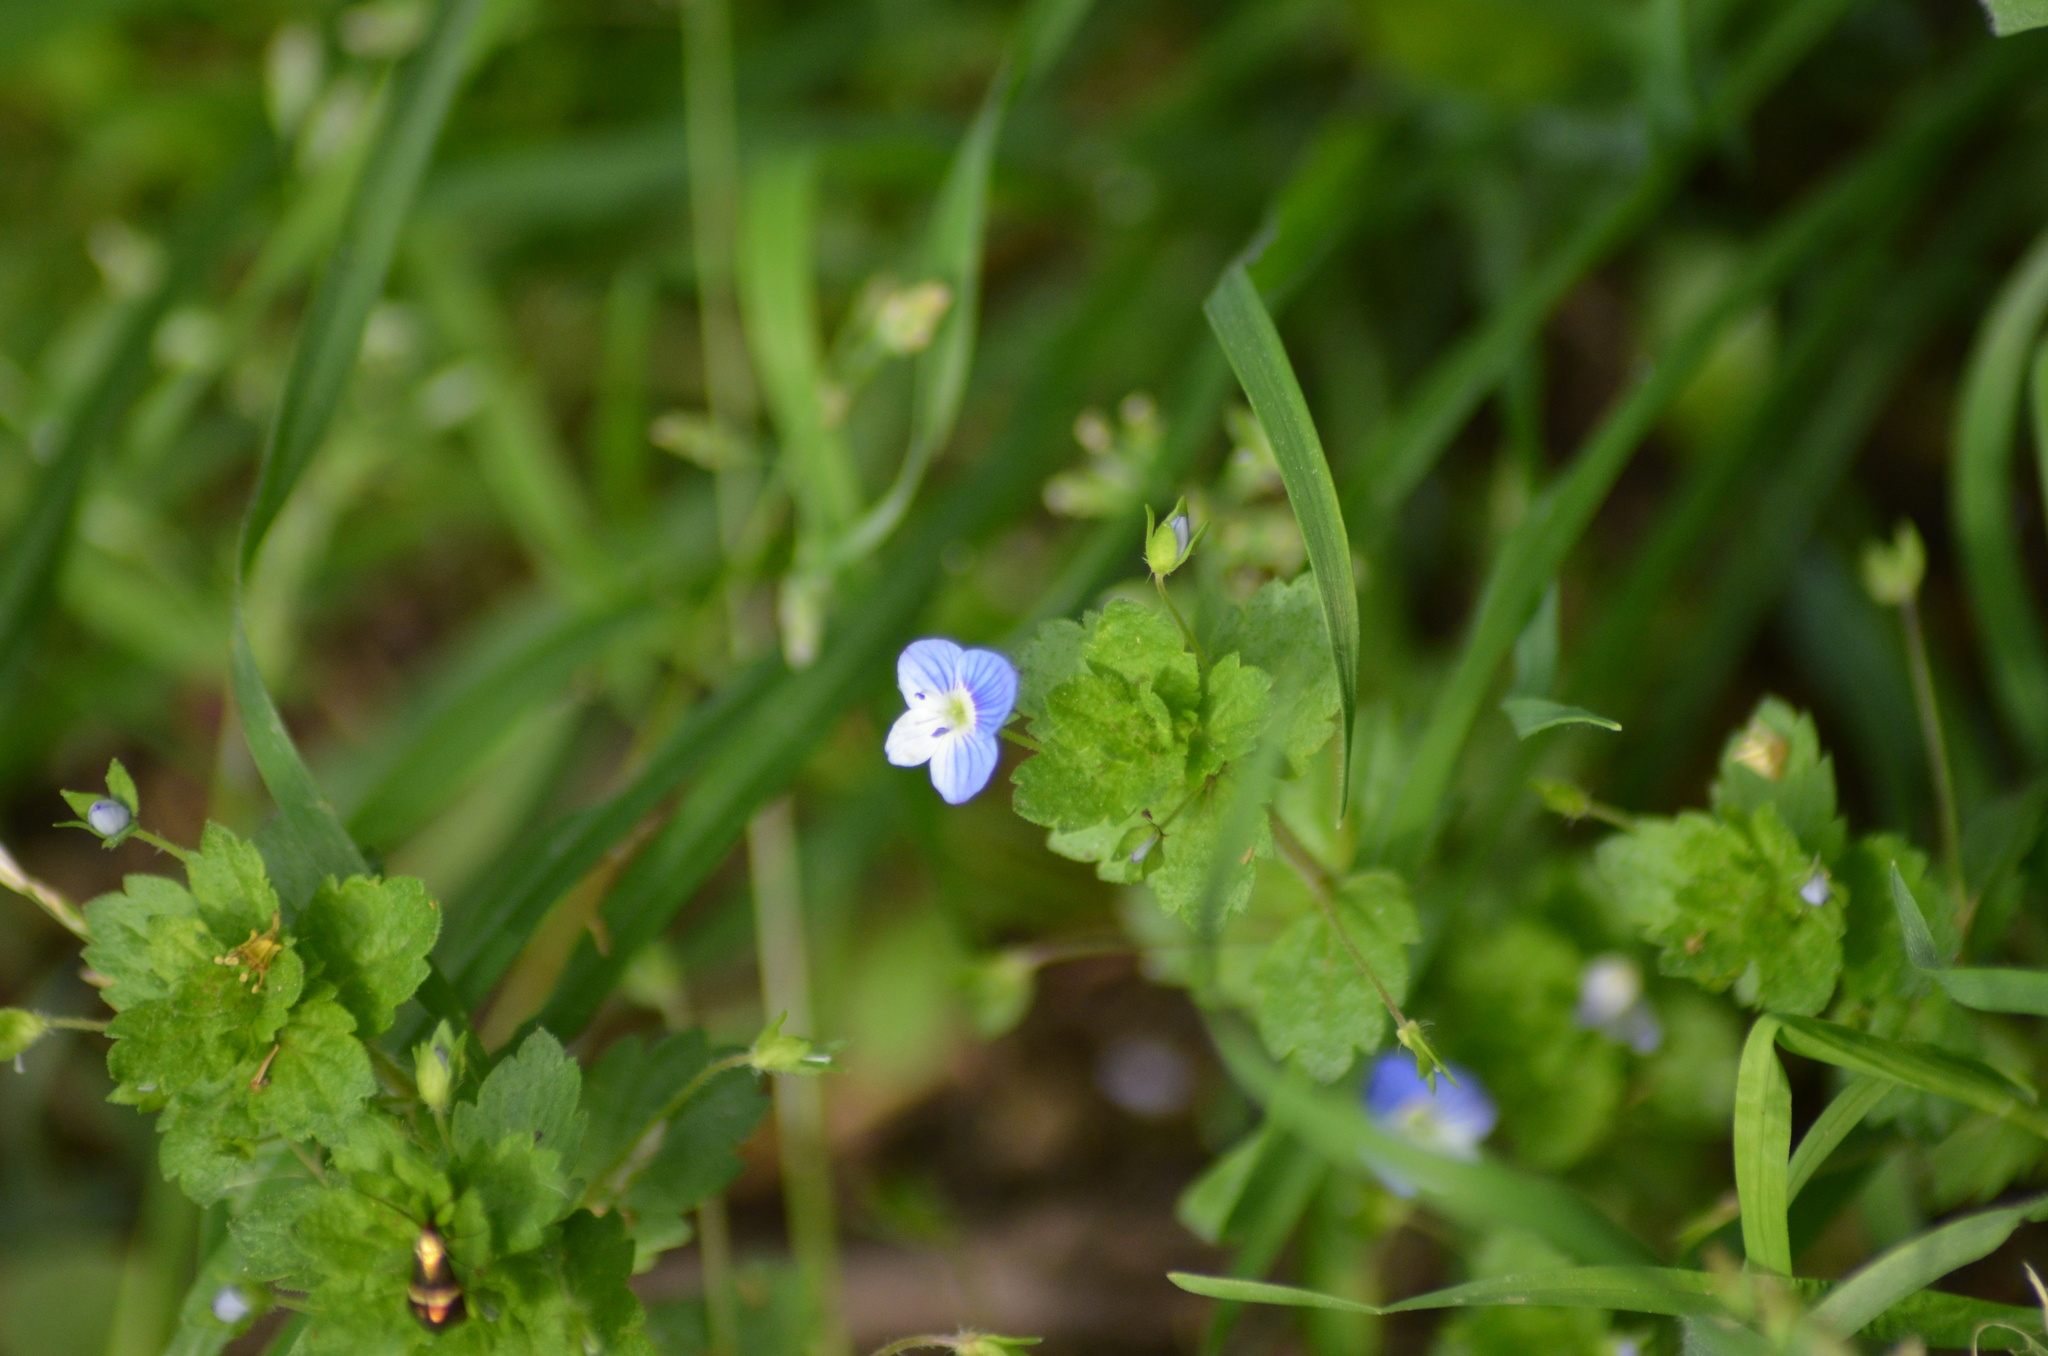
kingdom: Plantae
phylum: Tracheophyta
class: Magnoliopsida
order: Lamiales
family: Plantaginaceae
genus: Veronica
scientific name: Veronica persica
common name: Common field-speedwell
